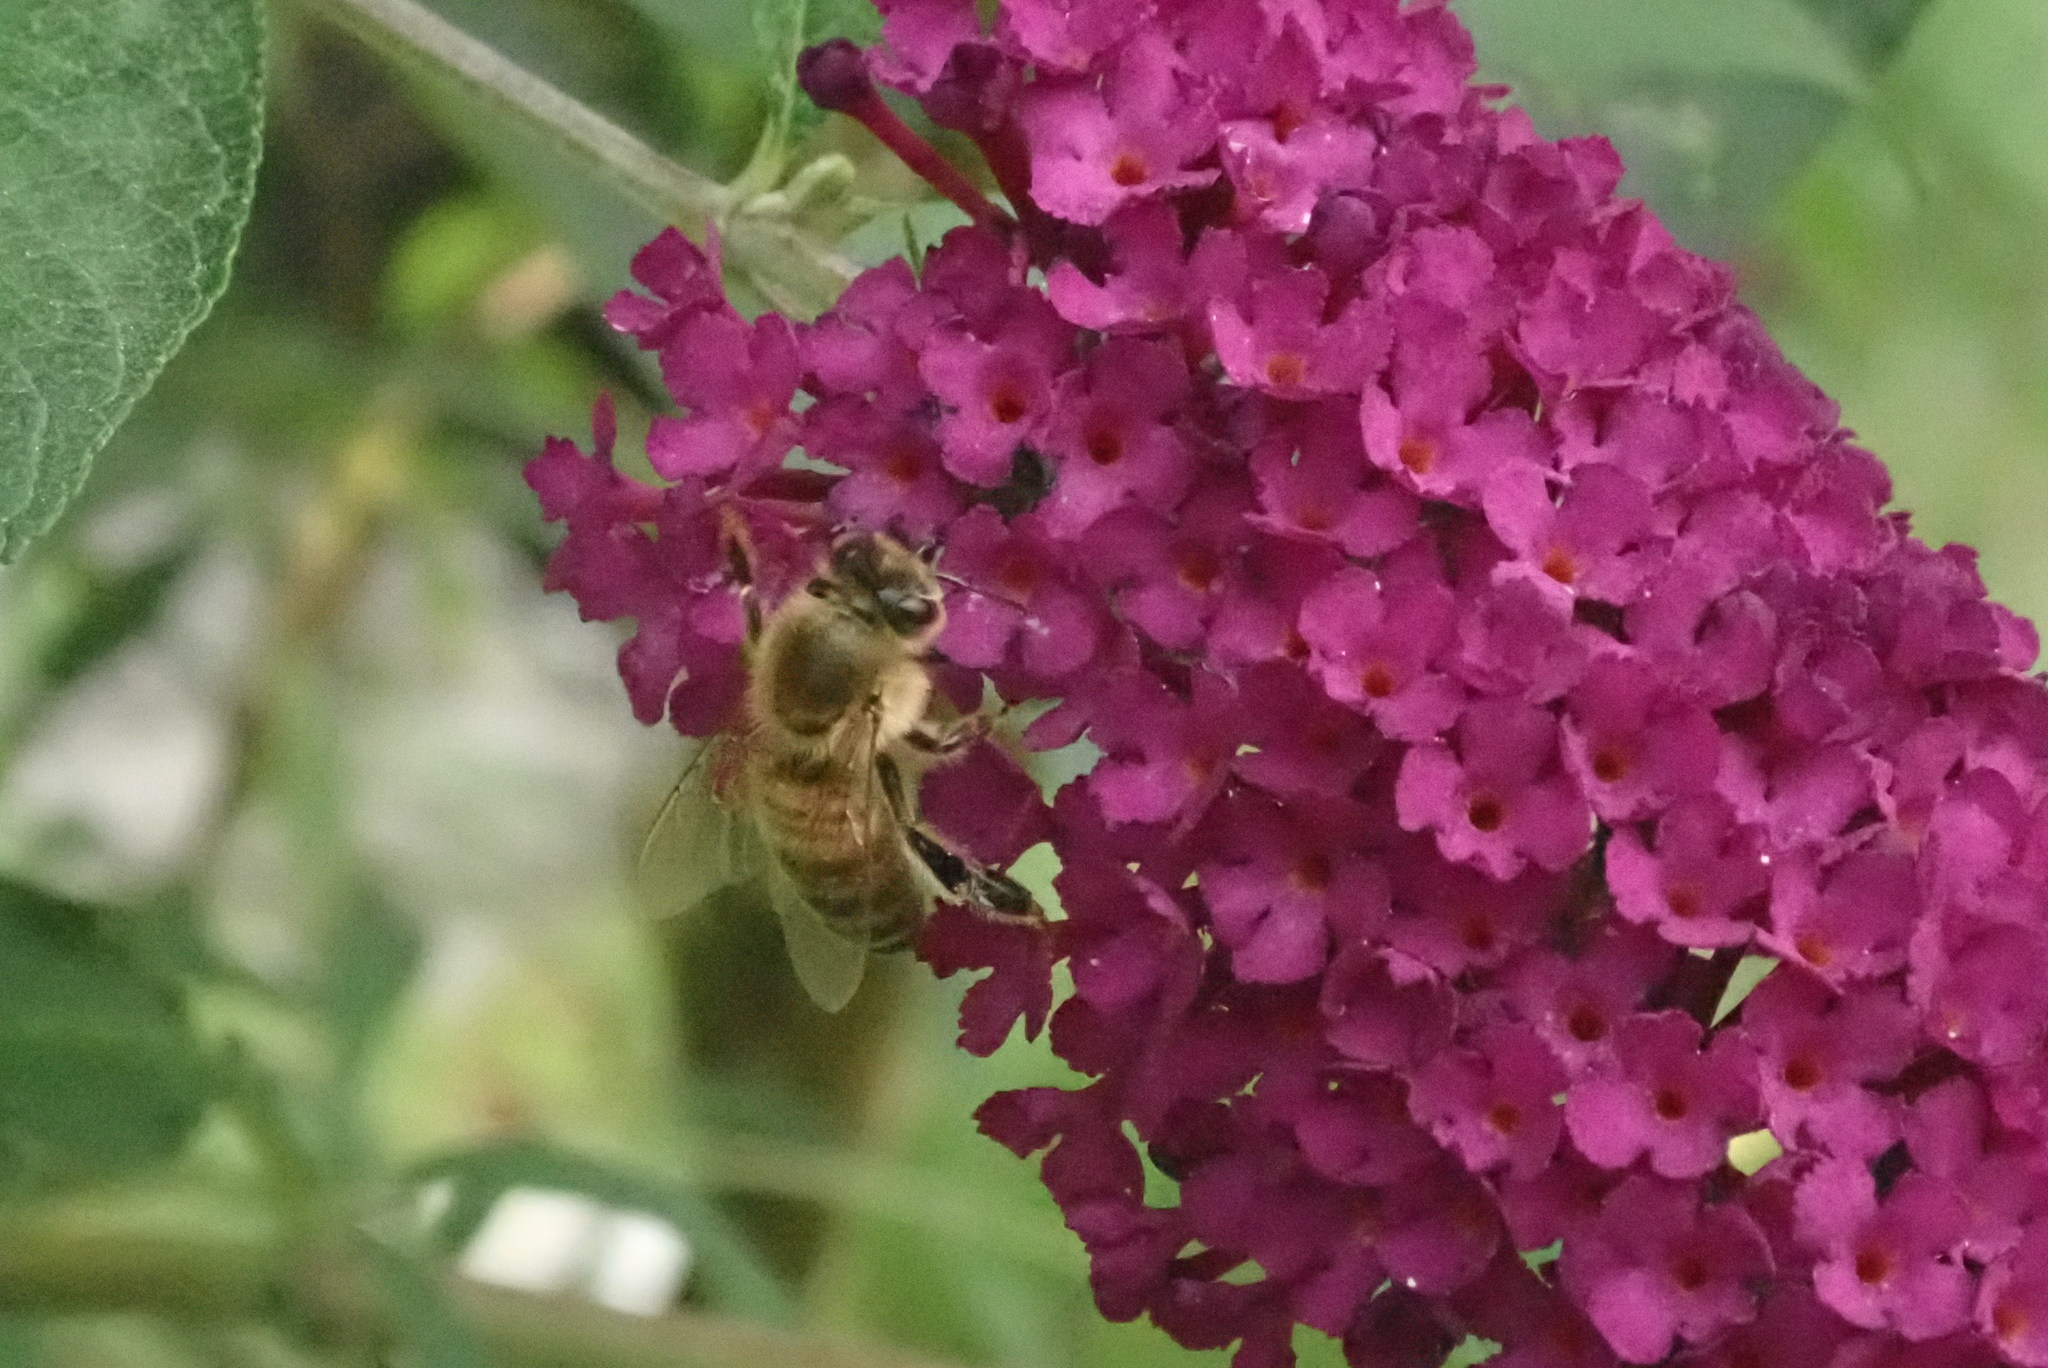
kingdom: Animalia
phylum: Arthropoda
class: Insecta
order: Hymenoptera
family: Apidae
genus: Apis
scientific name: Apis mellifera
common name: Honey bee
